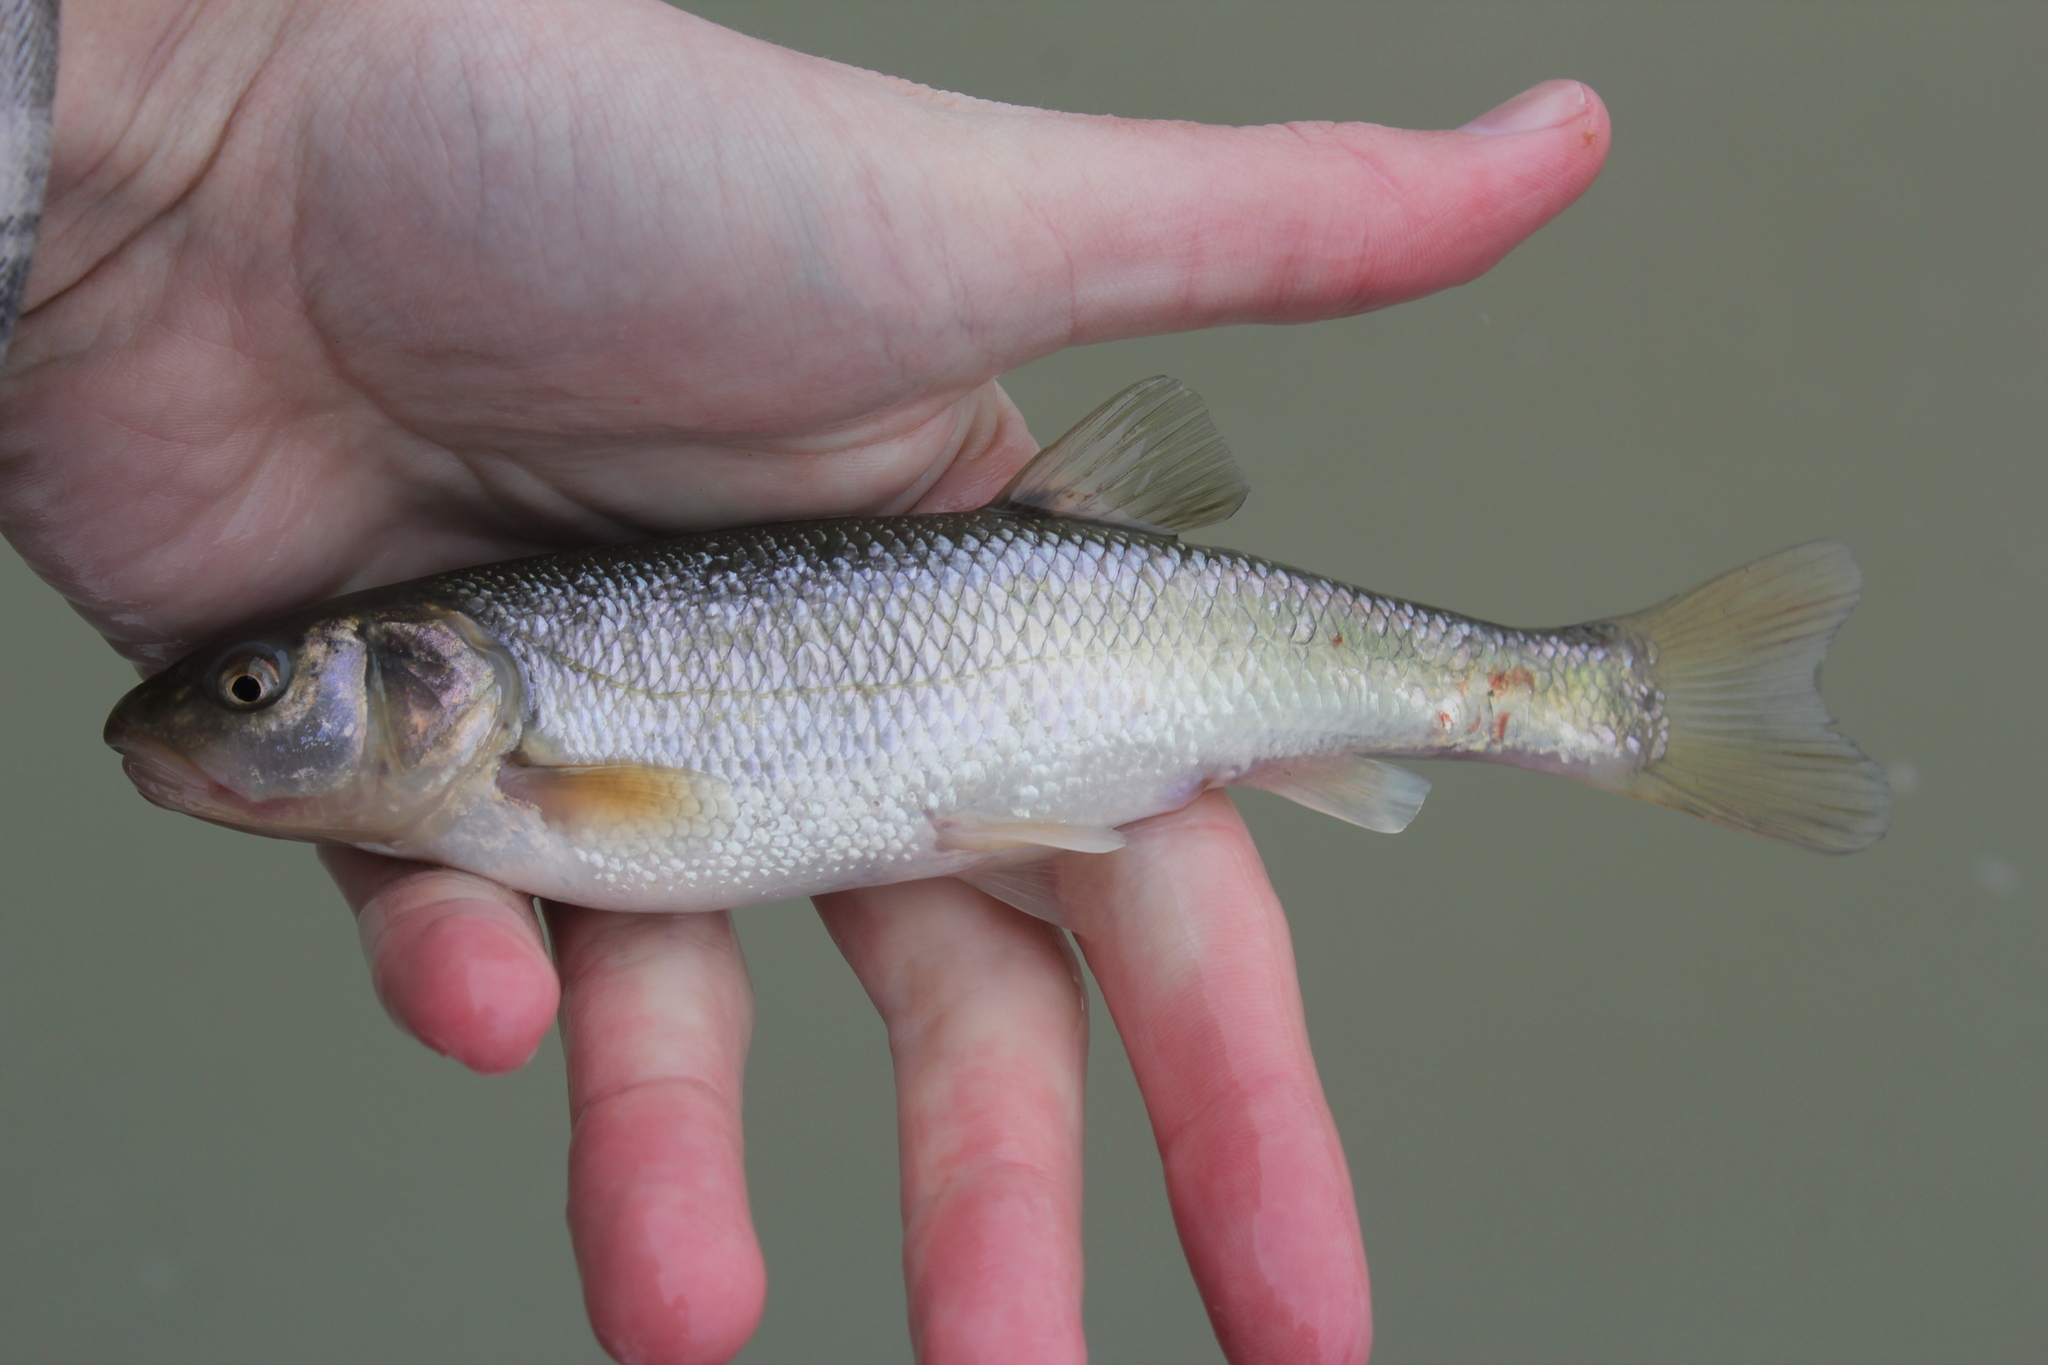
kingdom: Animalia
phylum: Chordata
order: Cypriniformes
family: Cyprinidae
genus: Semotilus
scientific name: Semotilus atromaculatus
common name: Creek chub
